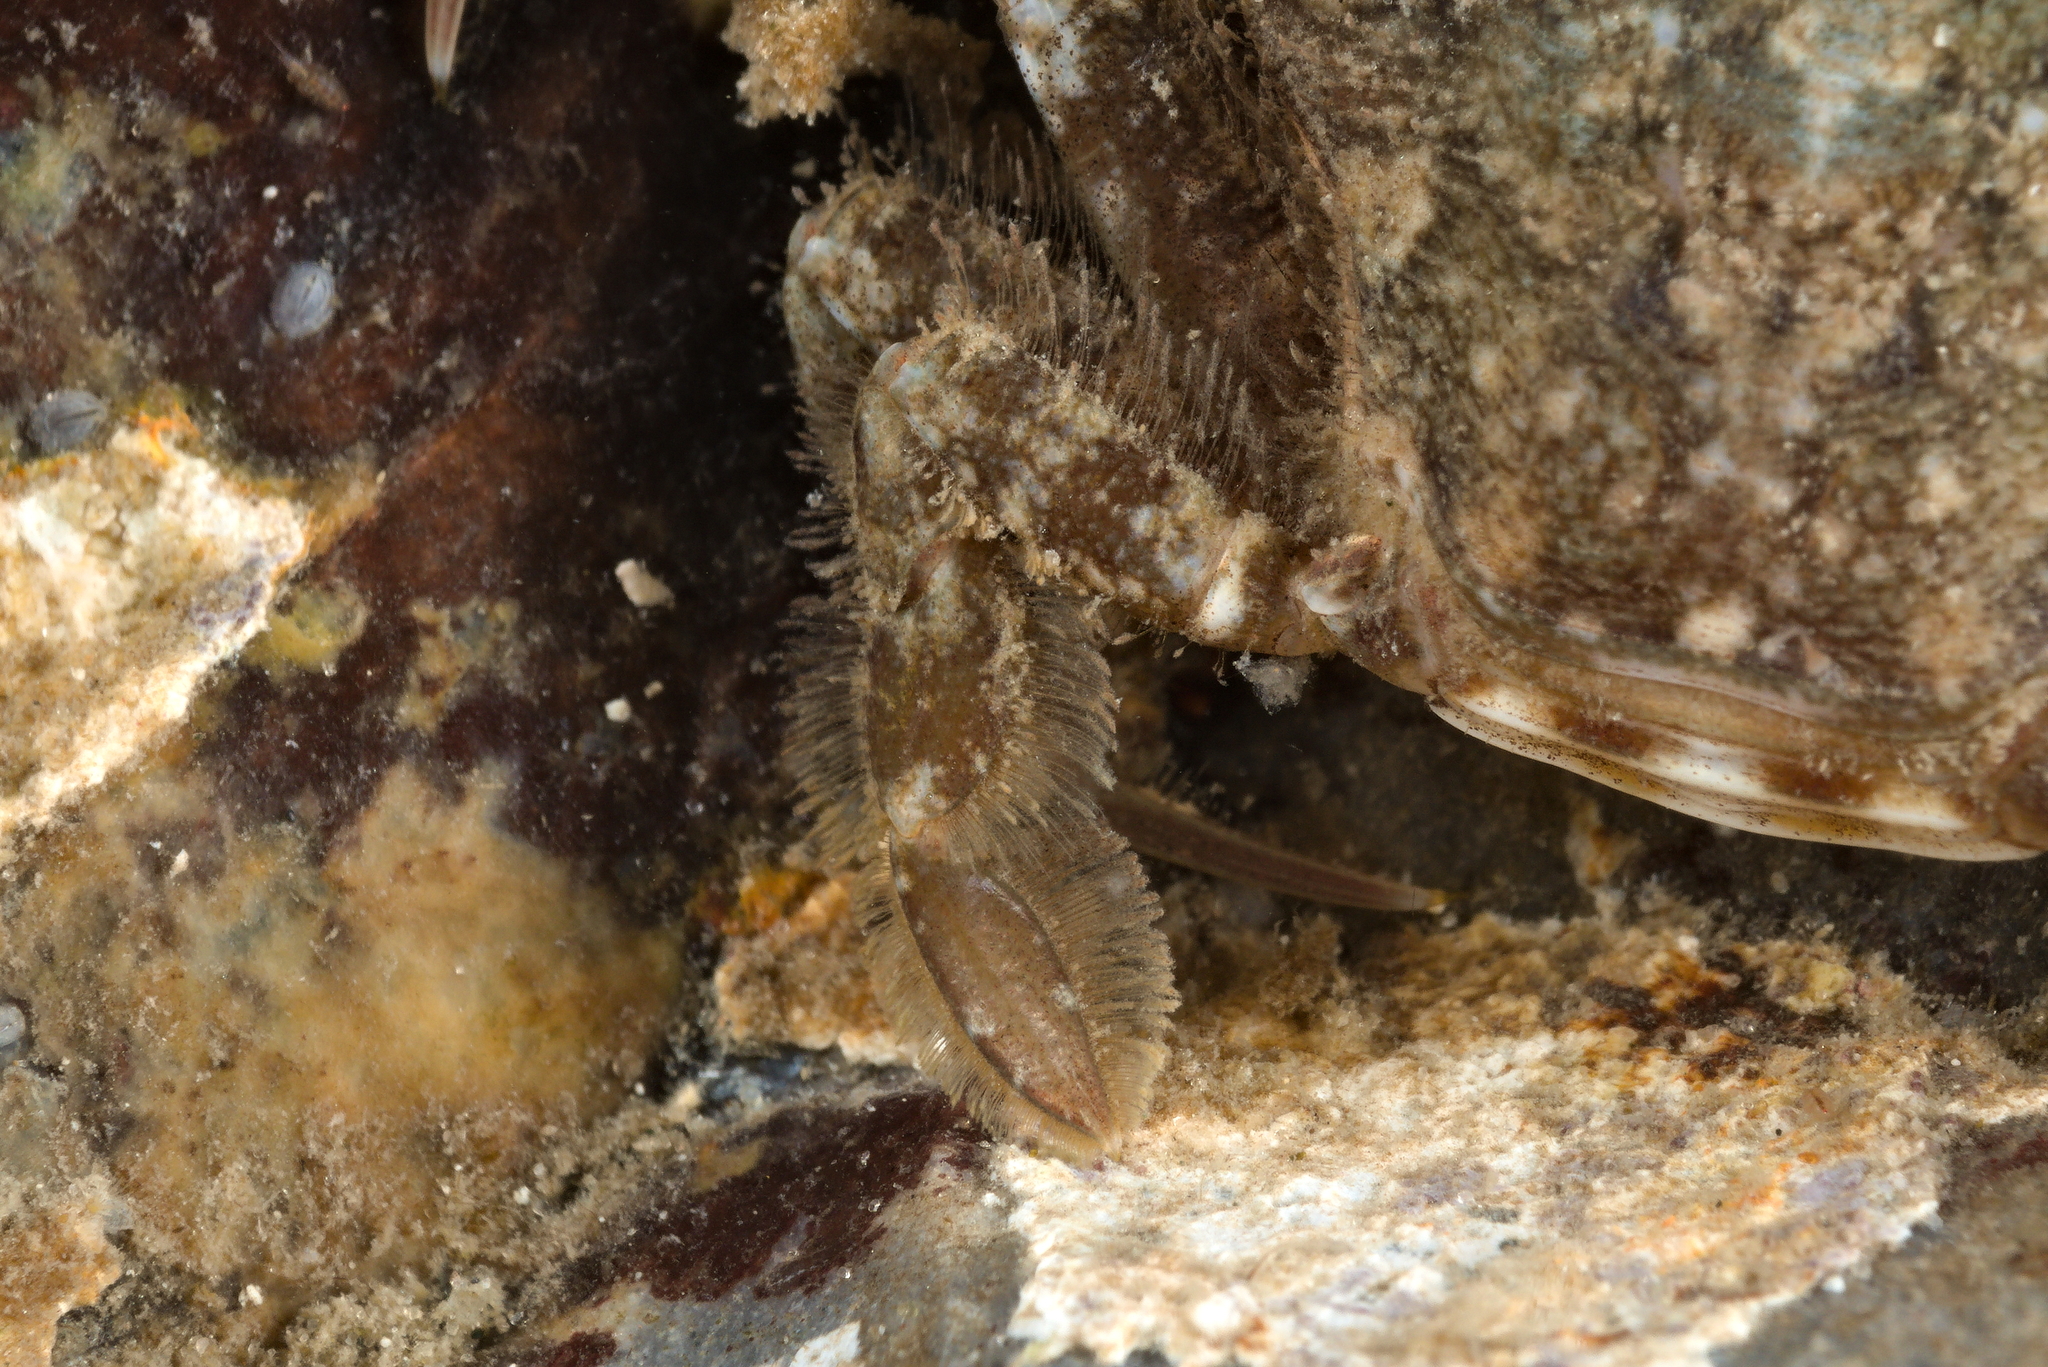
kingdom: Animalia
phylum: Arthropoda
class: Malacostraca
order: Decapoda
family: Polybiidae
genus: Liocarcinus
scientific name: Liocarcinus navigator
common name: Arch-fronted swimming crab
